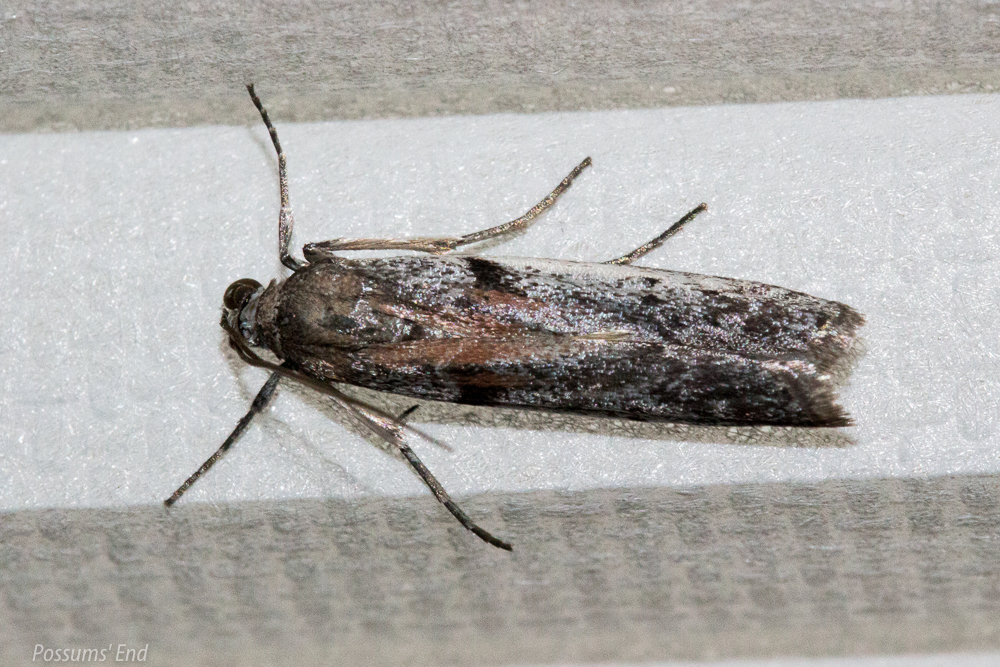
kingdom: Animalia
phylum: Arthropoda
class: Insecta
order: Lepidoptera
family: Pyralidae
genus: Patagoniodes
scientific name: Patagoniodes farinaria
